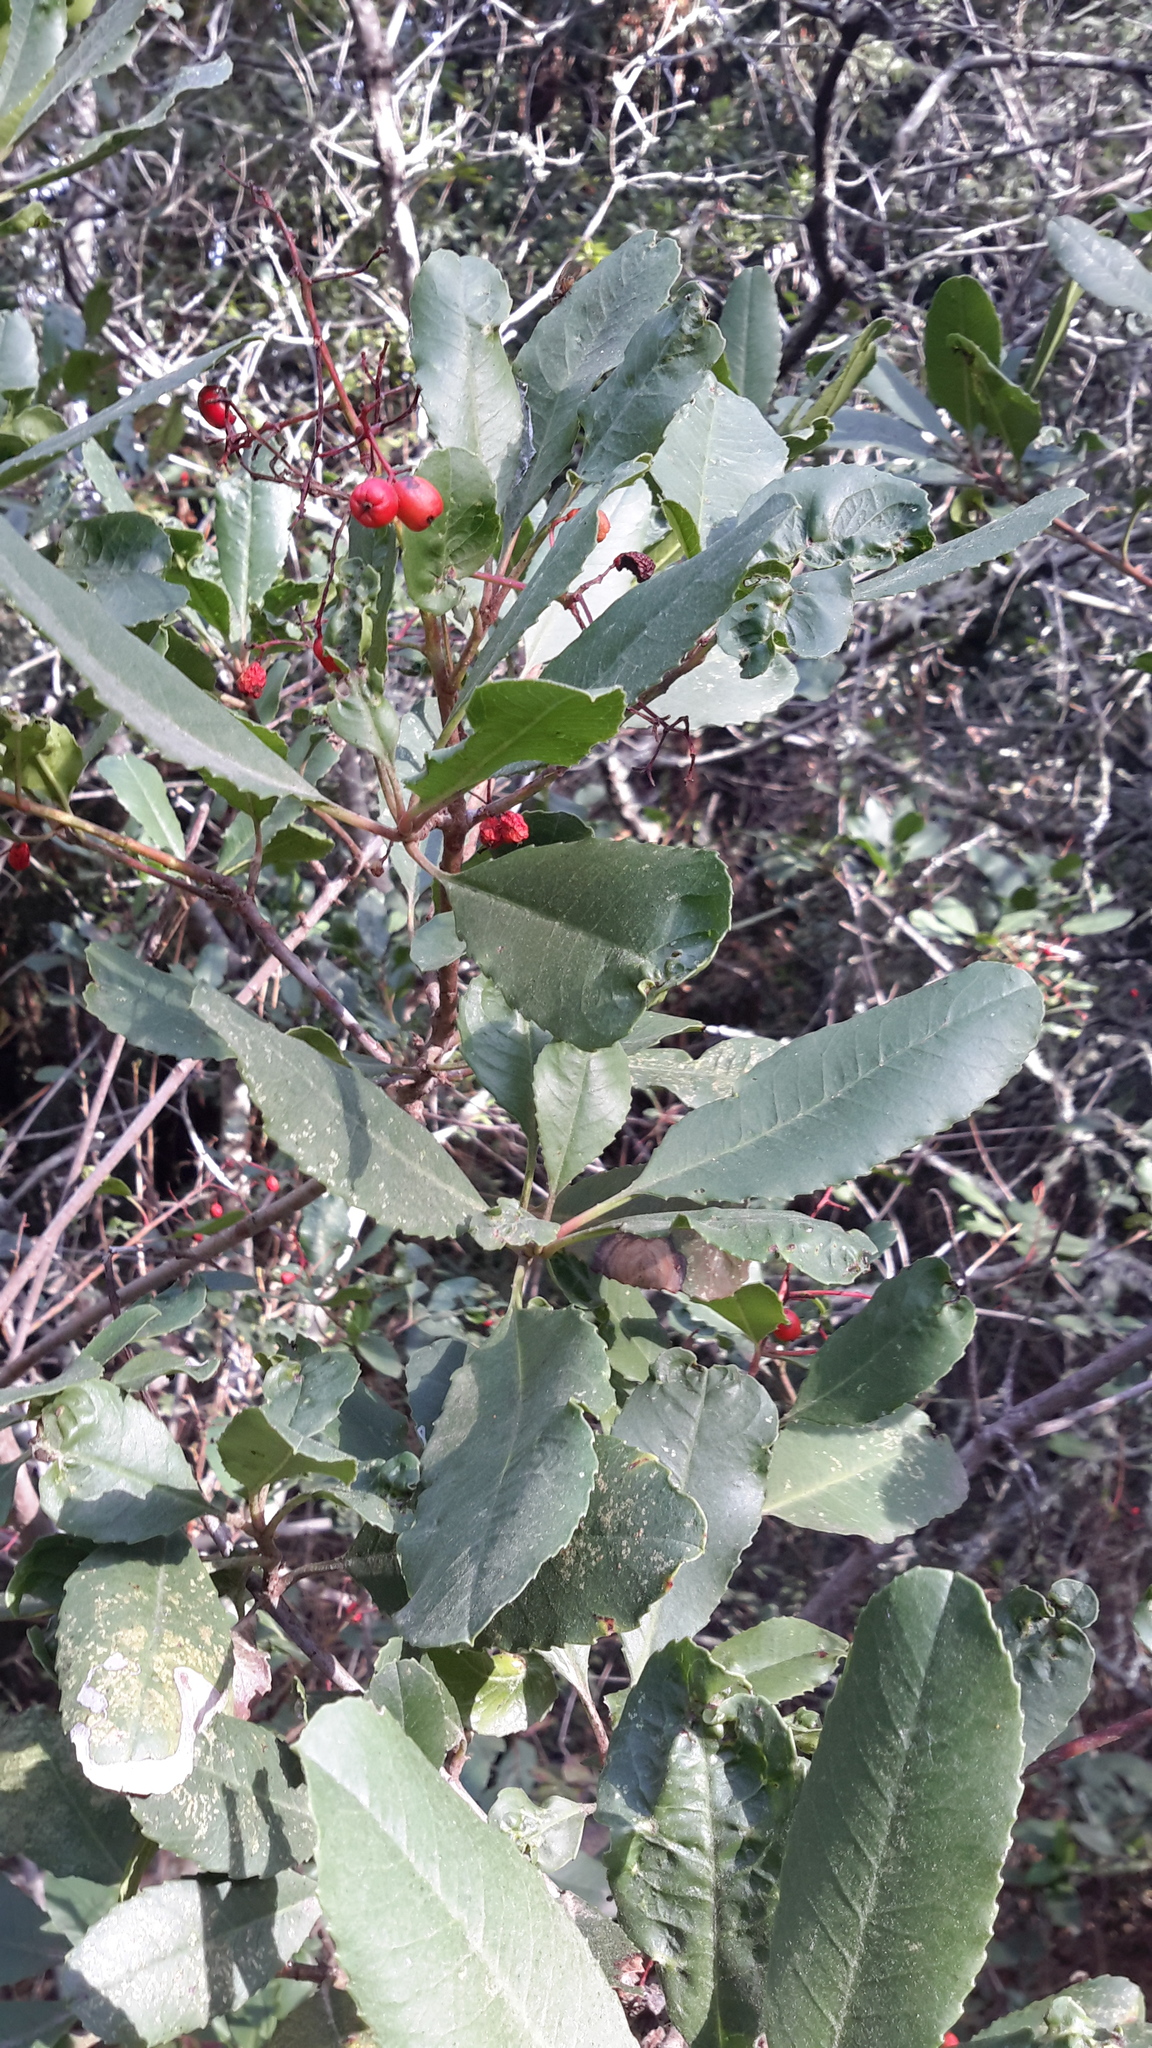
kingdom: Plantae
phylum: Tracheophyta
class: Magnoliopsida
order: Rosales
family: Rosaceae
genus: Heteromeles
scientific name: Heteromeles arbutifolia
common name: California-holly
